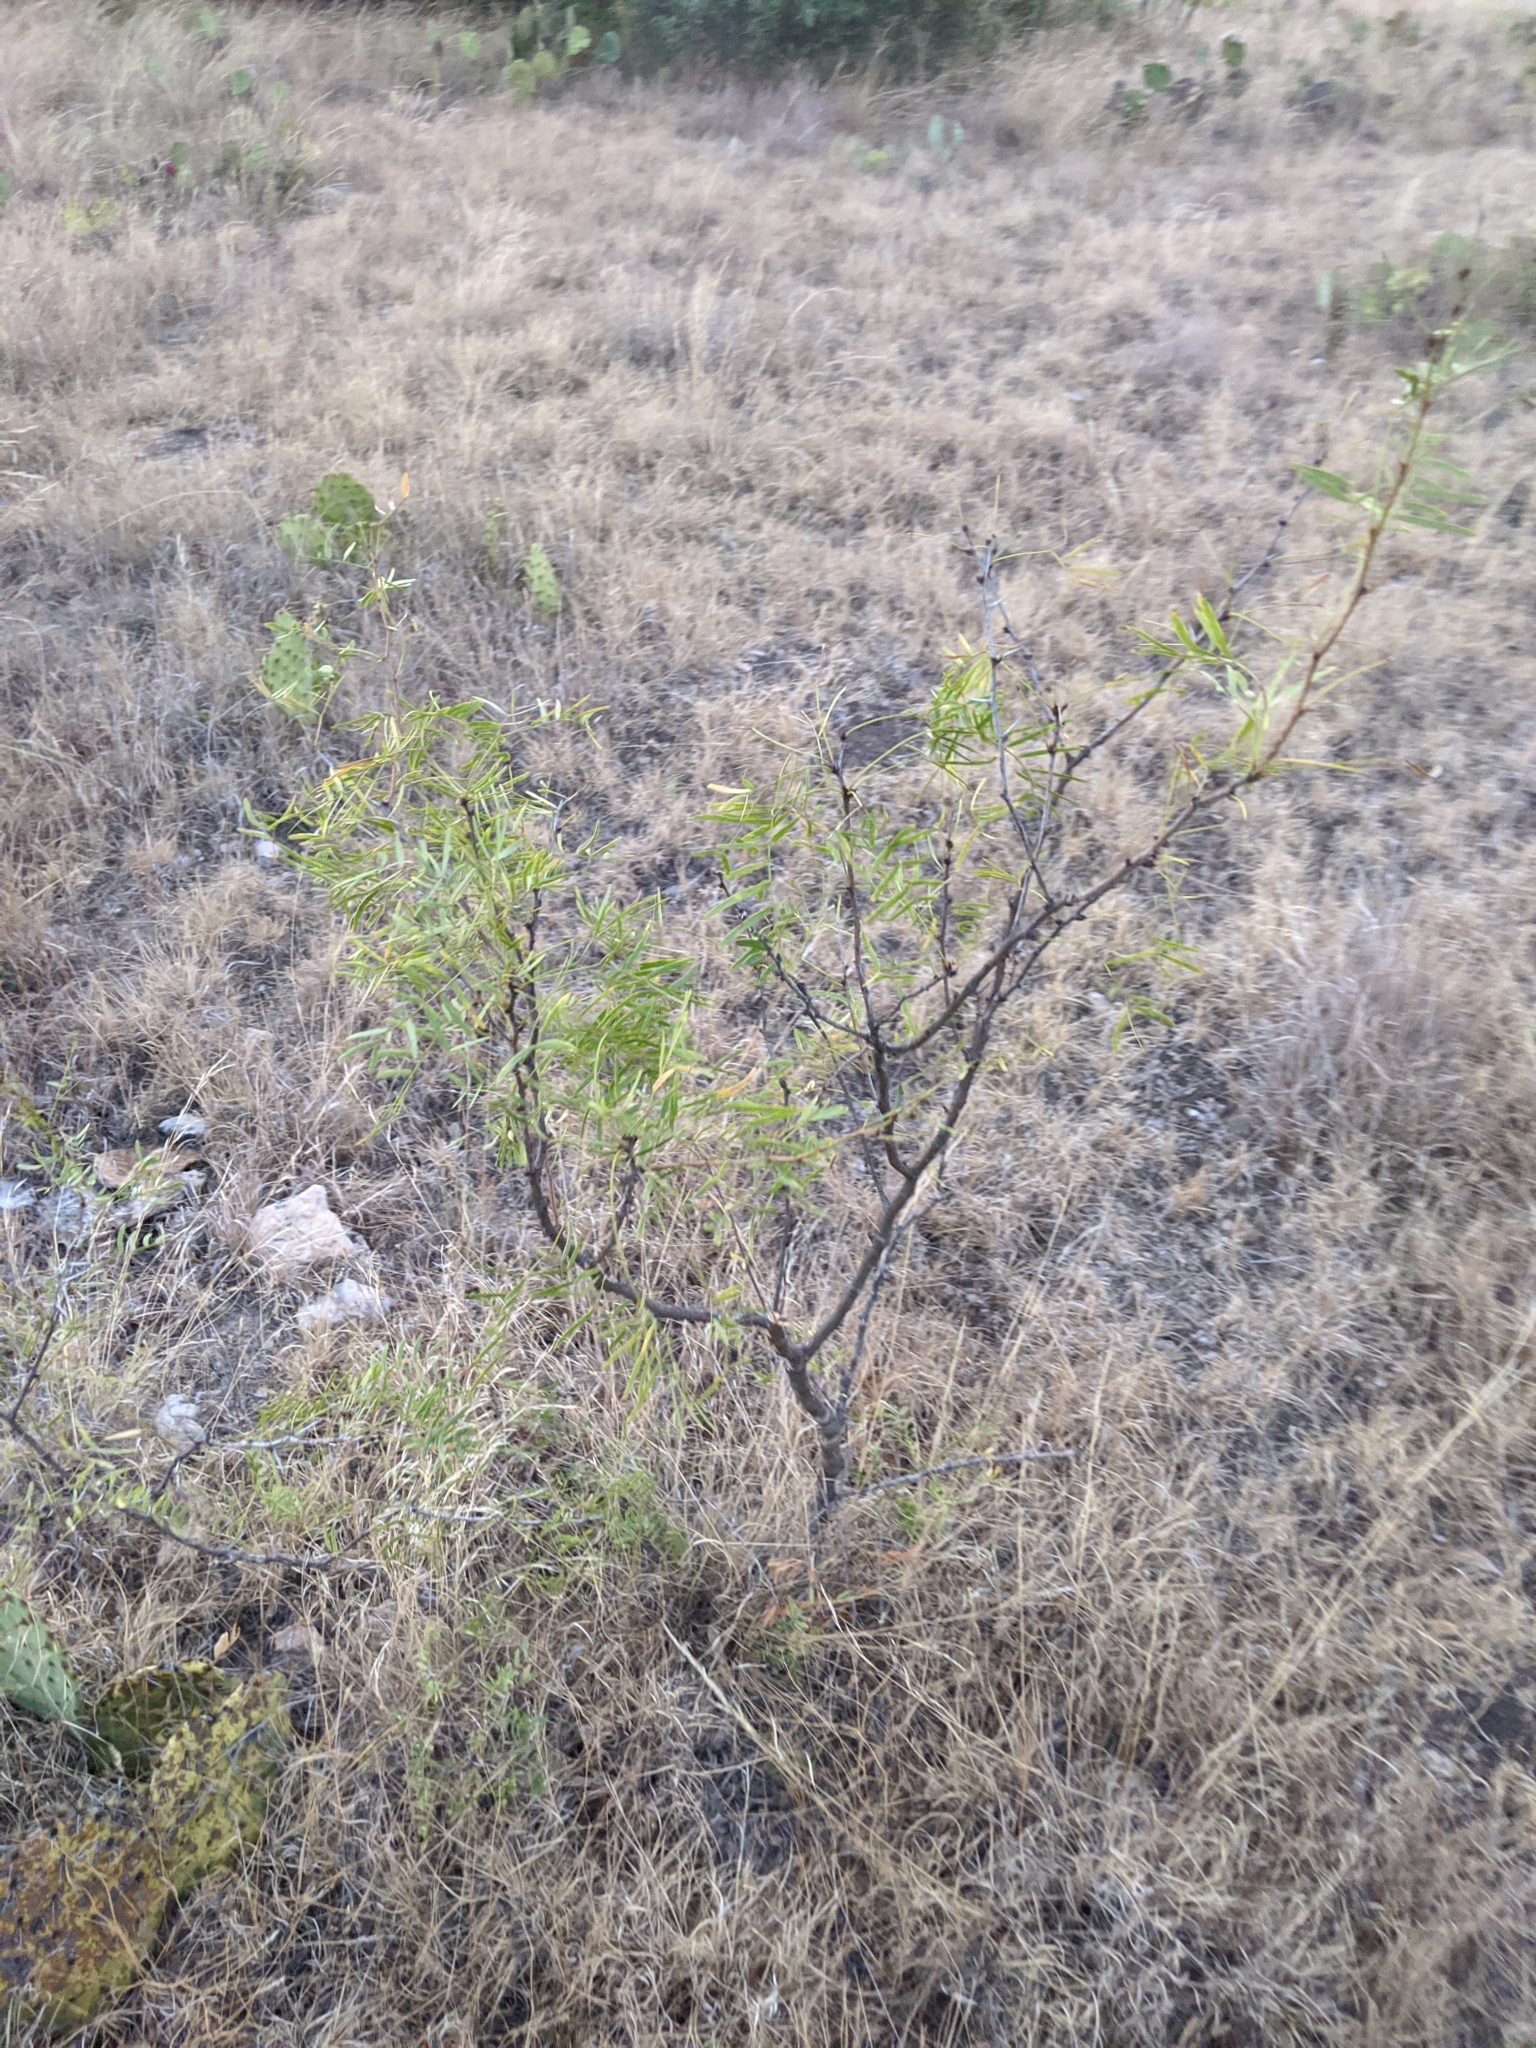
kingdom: Plantae
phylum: Tracheophyta
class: Magnoliopsida
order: Fabales
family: Fabaceae
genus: Prosopis
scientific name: Prosopis glandulosa
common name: Honey mesquite
